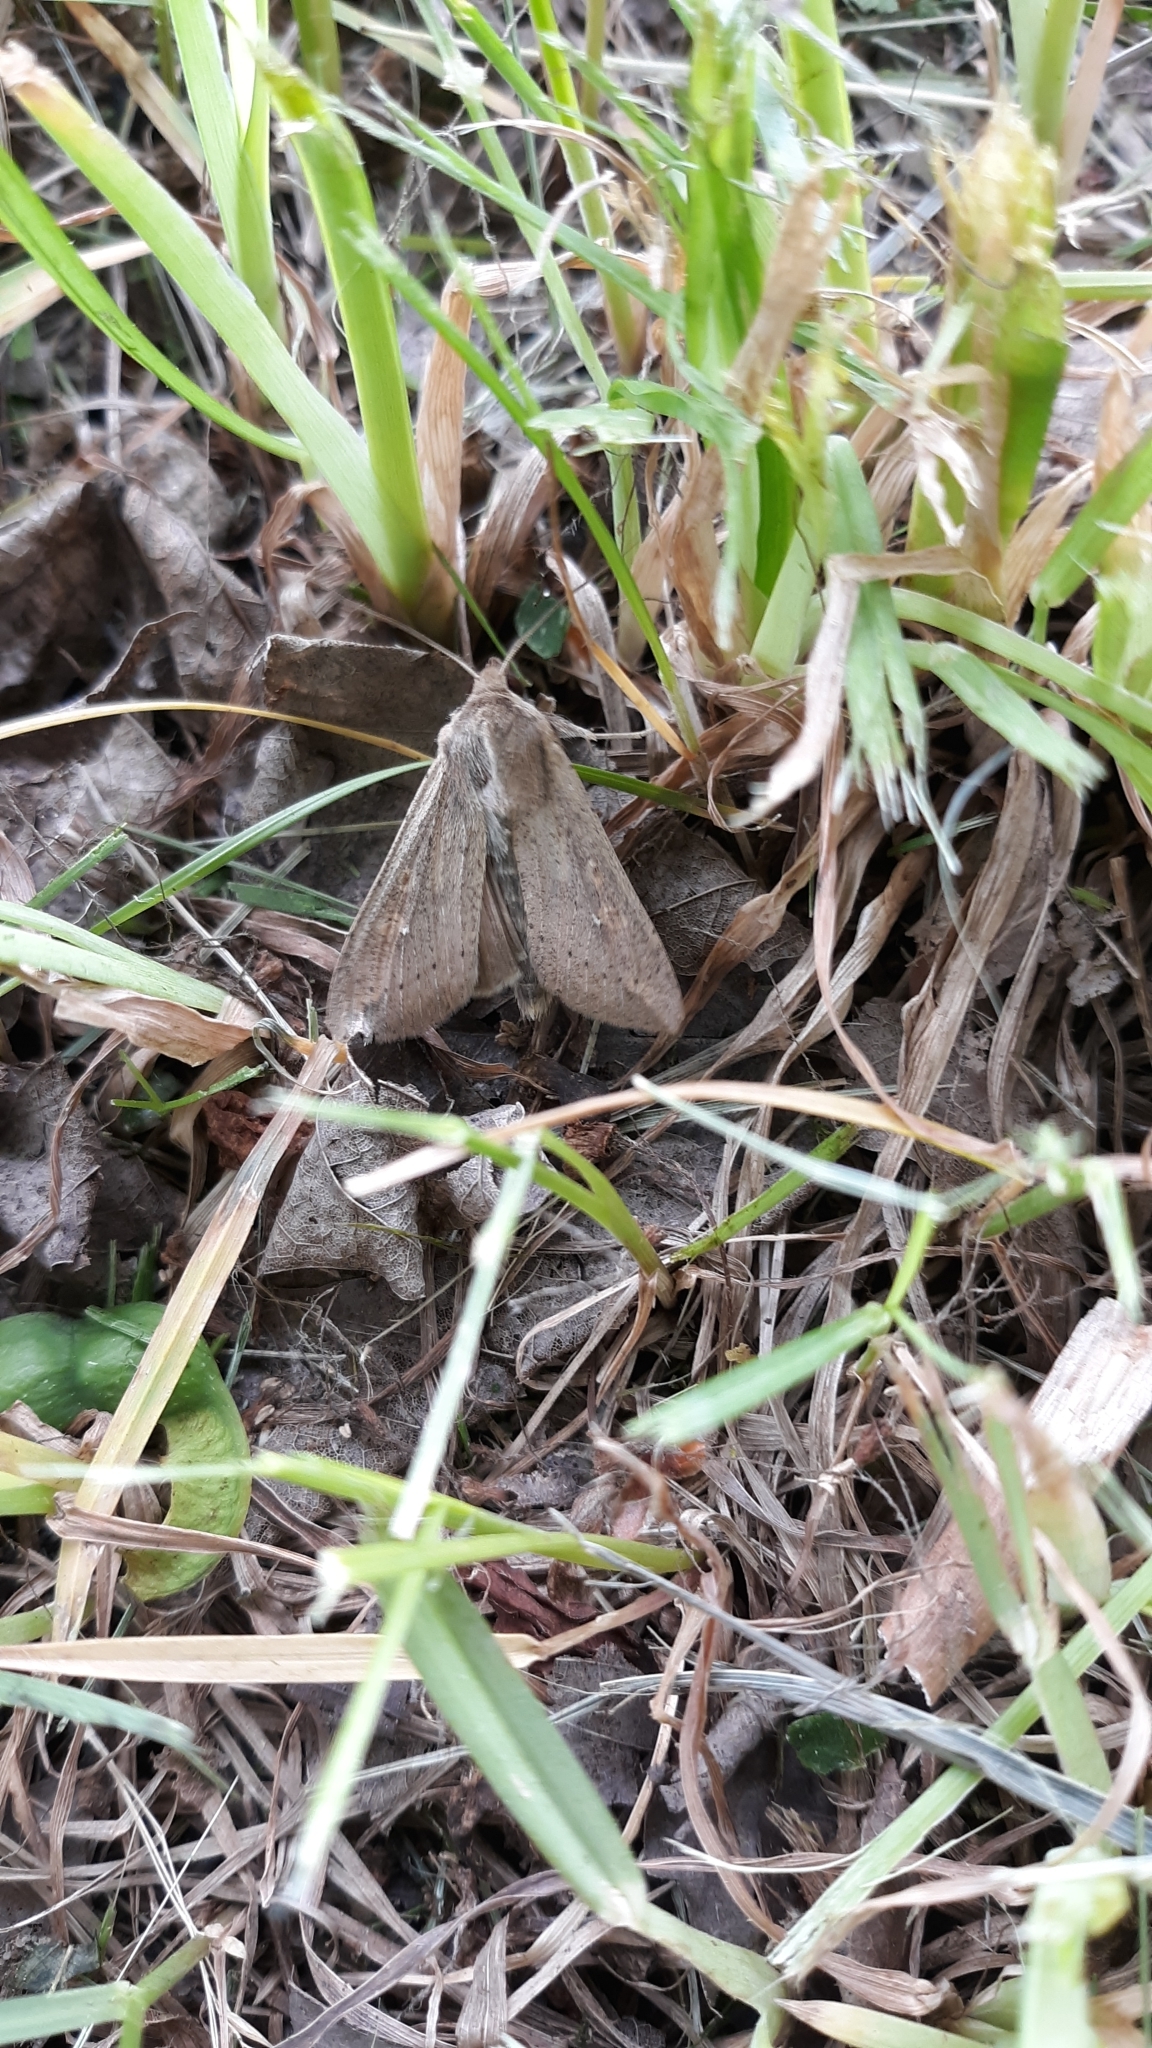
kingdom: Animalia
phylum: Arthropoda
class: Insecta
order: Lepidoptera
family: Noctuidae
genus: Mythimna
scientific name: Mythimna unipuncta
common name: White-speck
